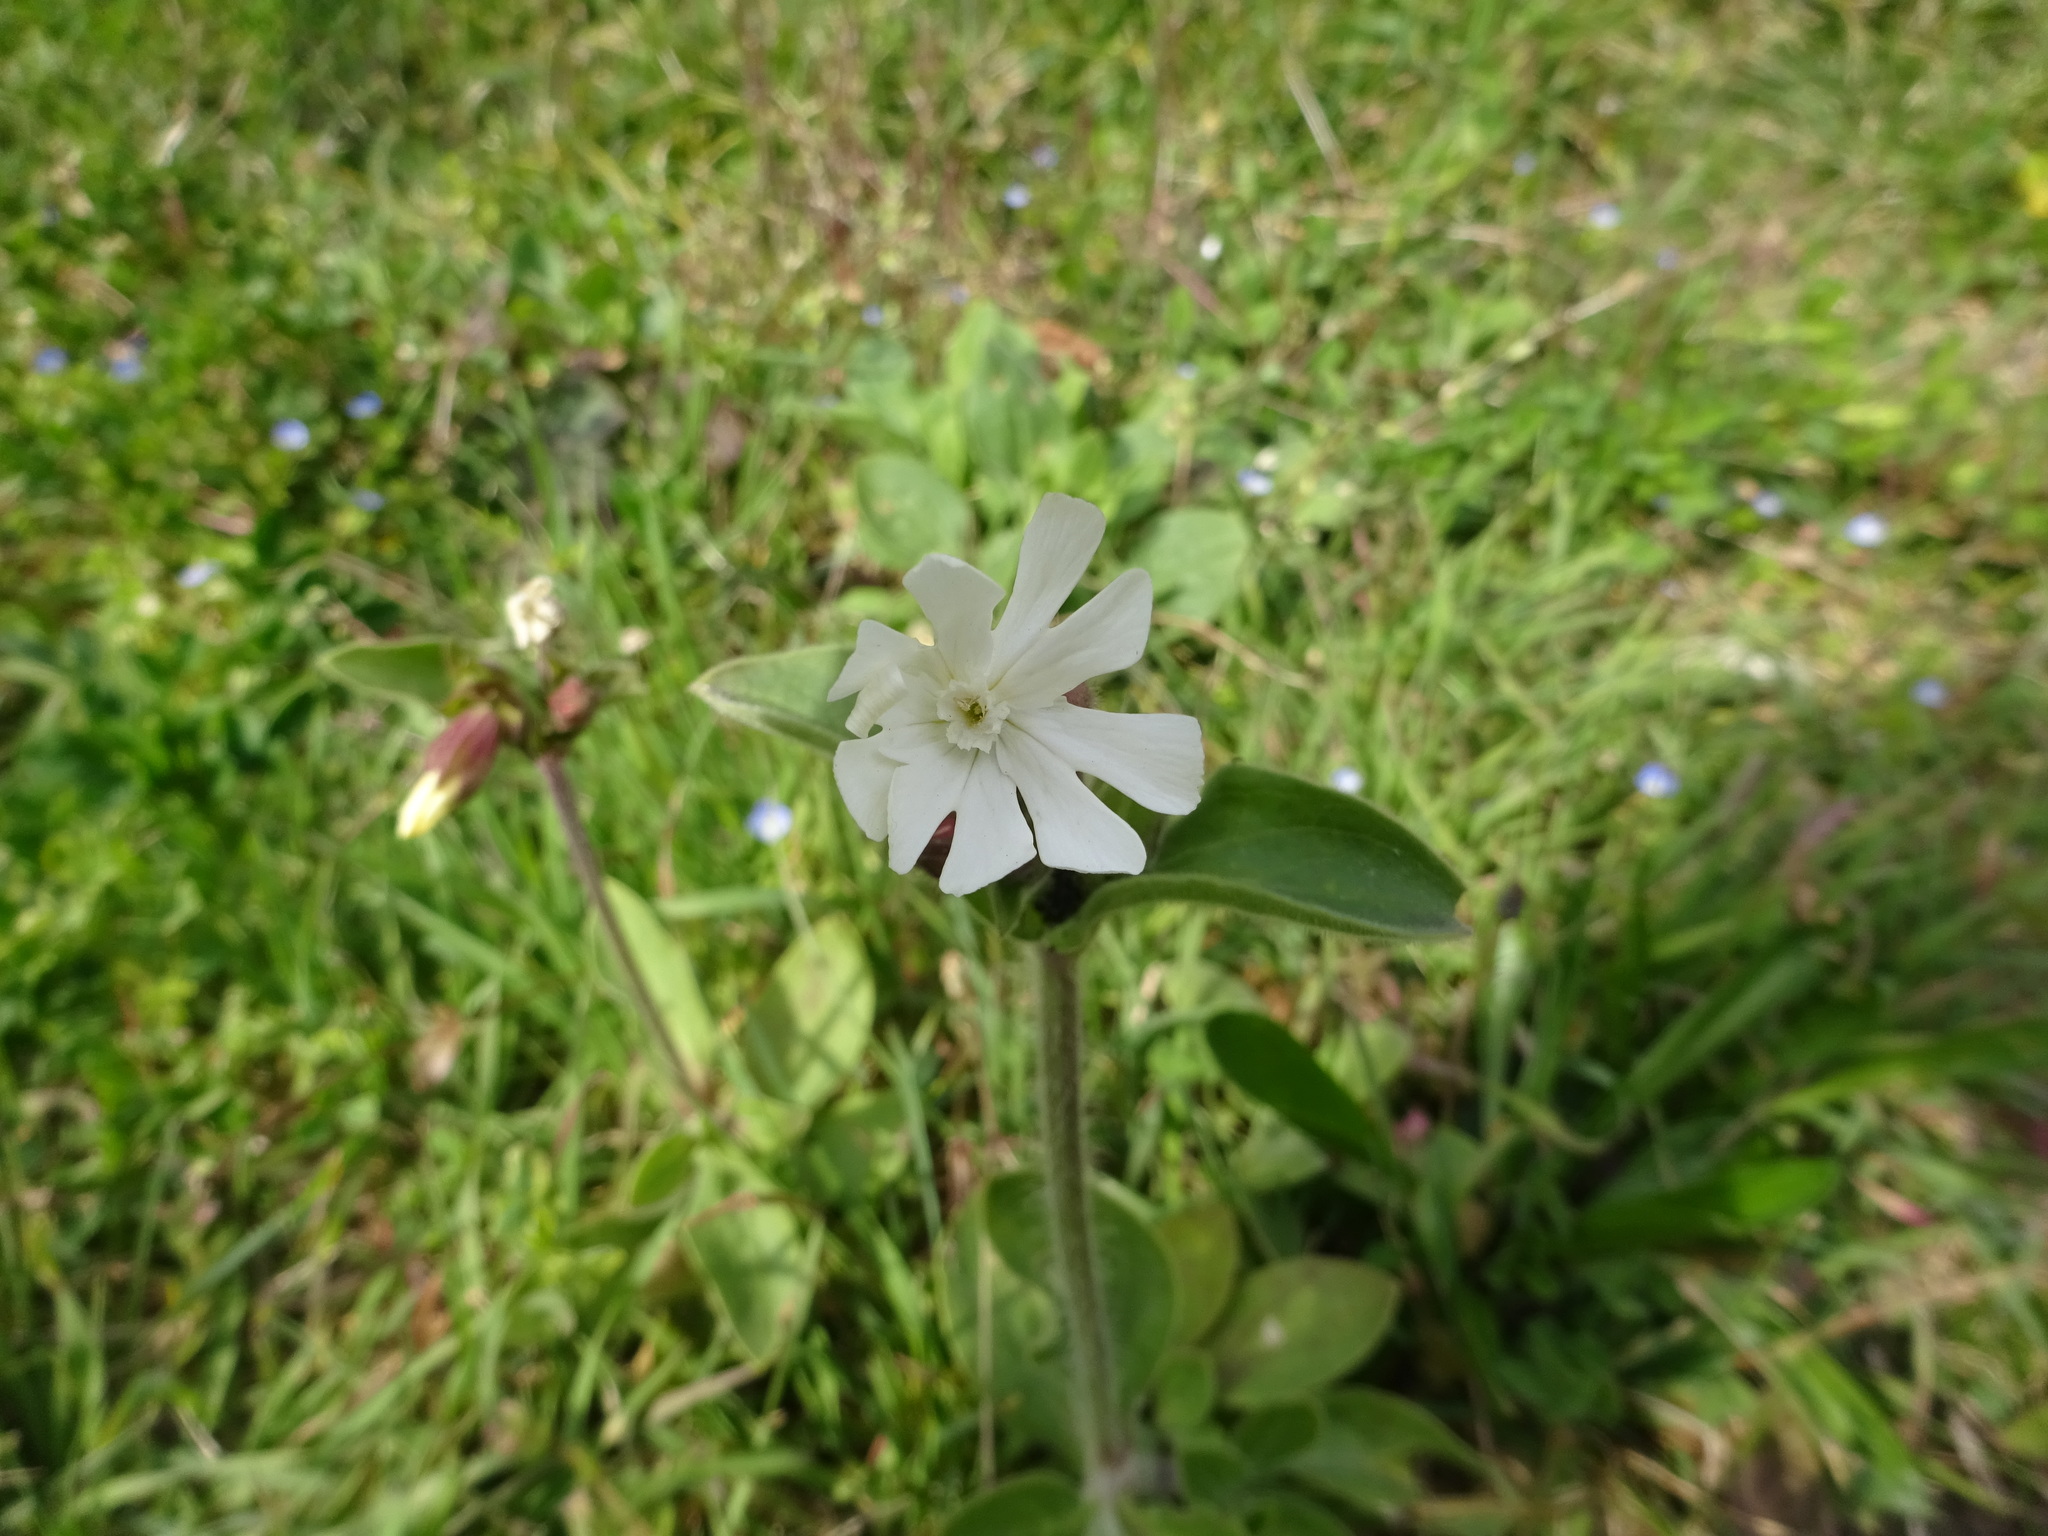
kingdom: Plantae
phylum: Tracheophyta
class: Magnoliopsida
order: Caryophyllales
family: Caryophyllaceae
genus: Silene
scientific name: Silene latifolia
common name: White campion
